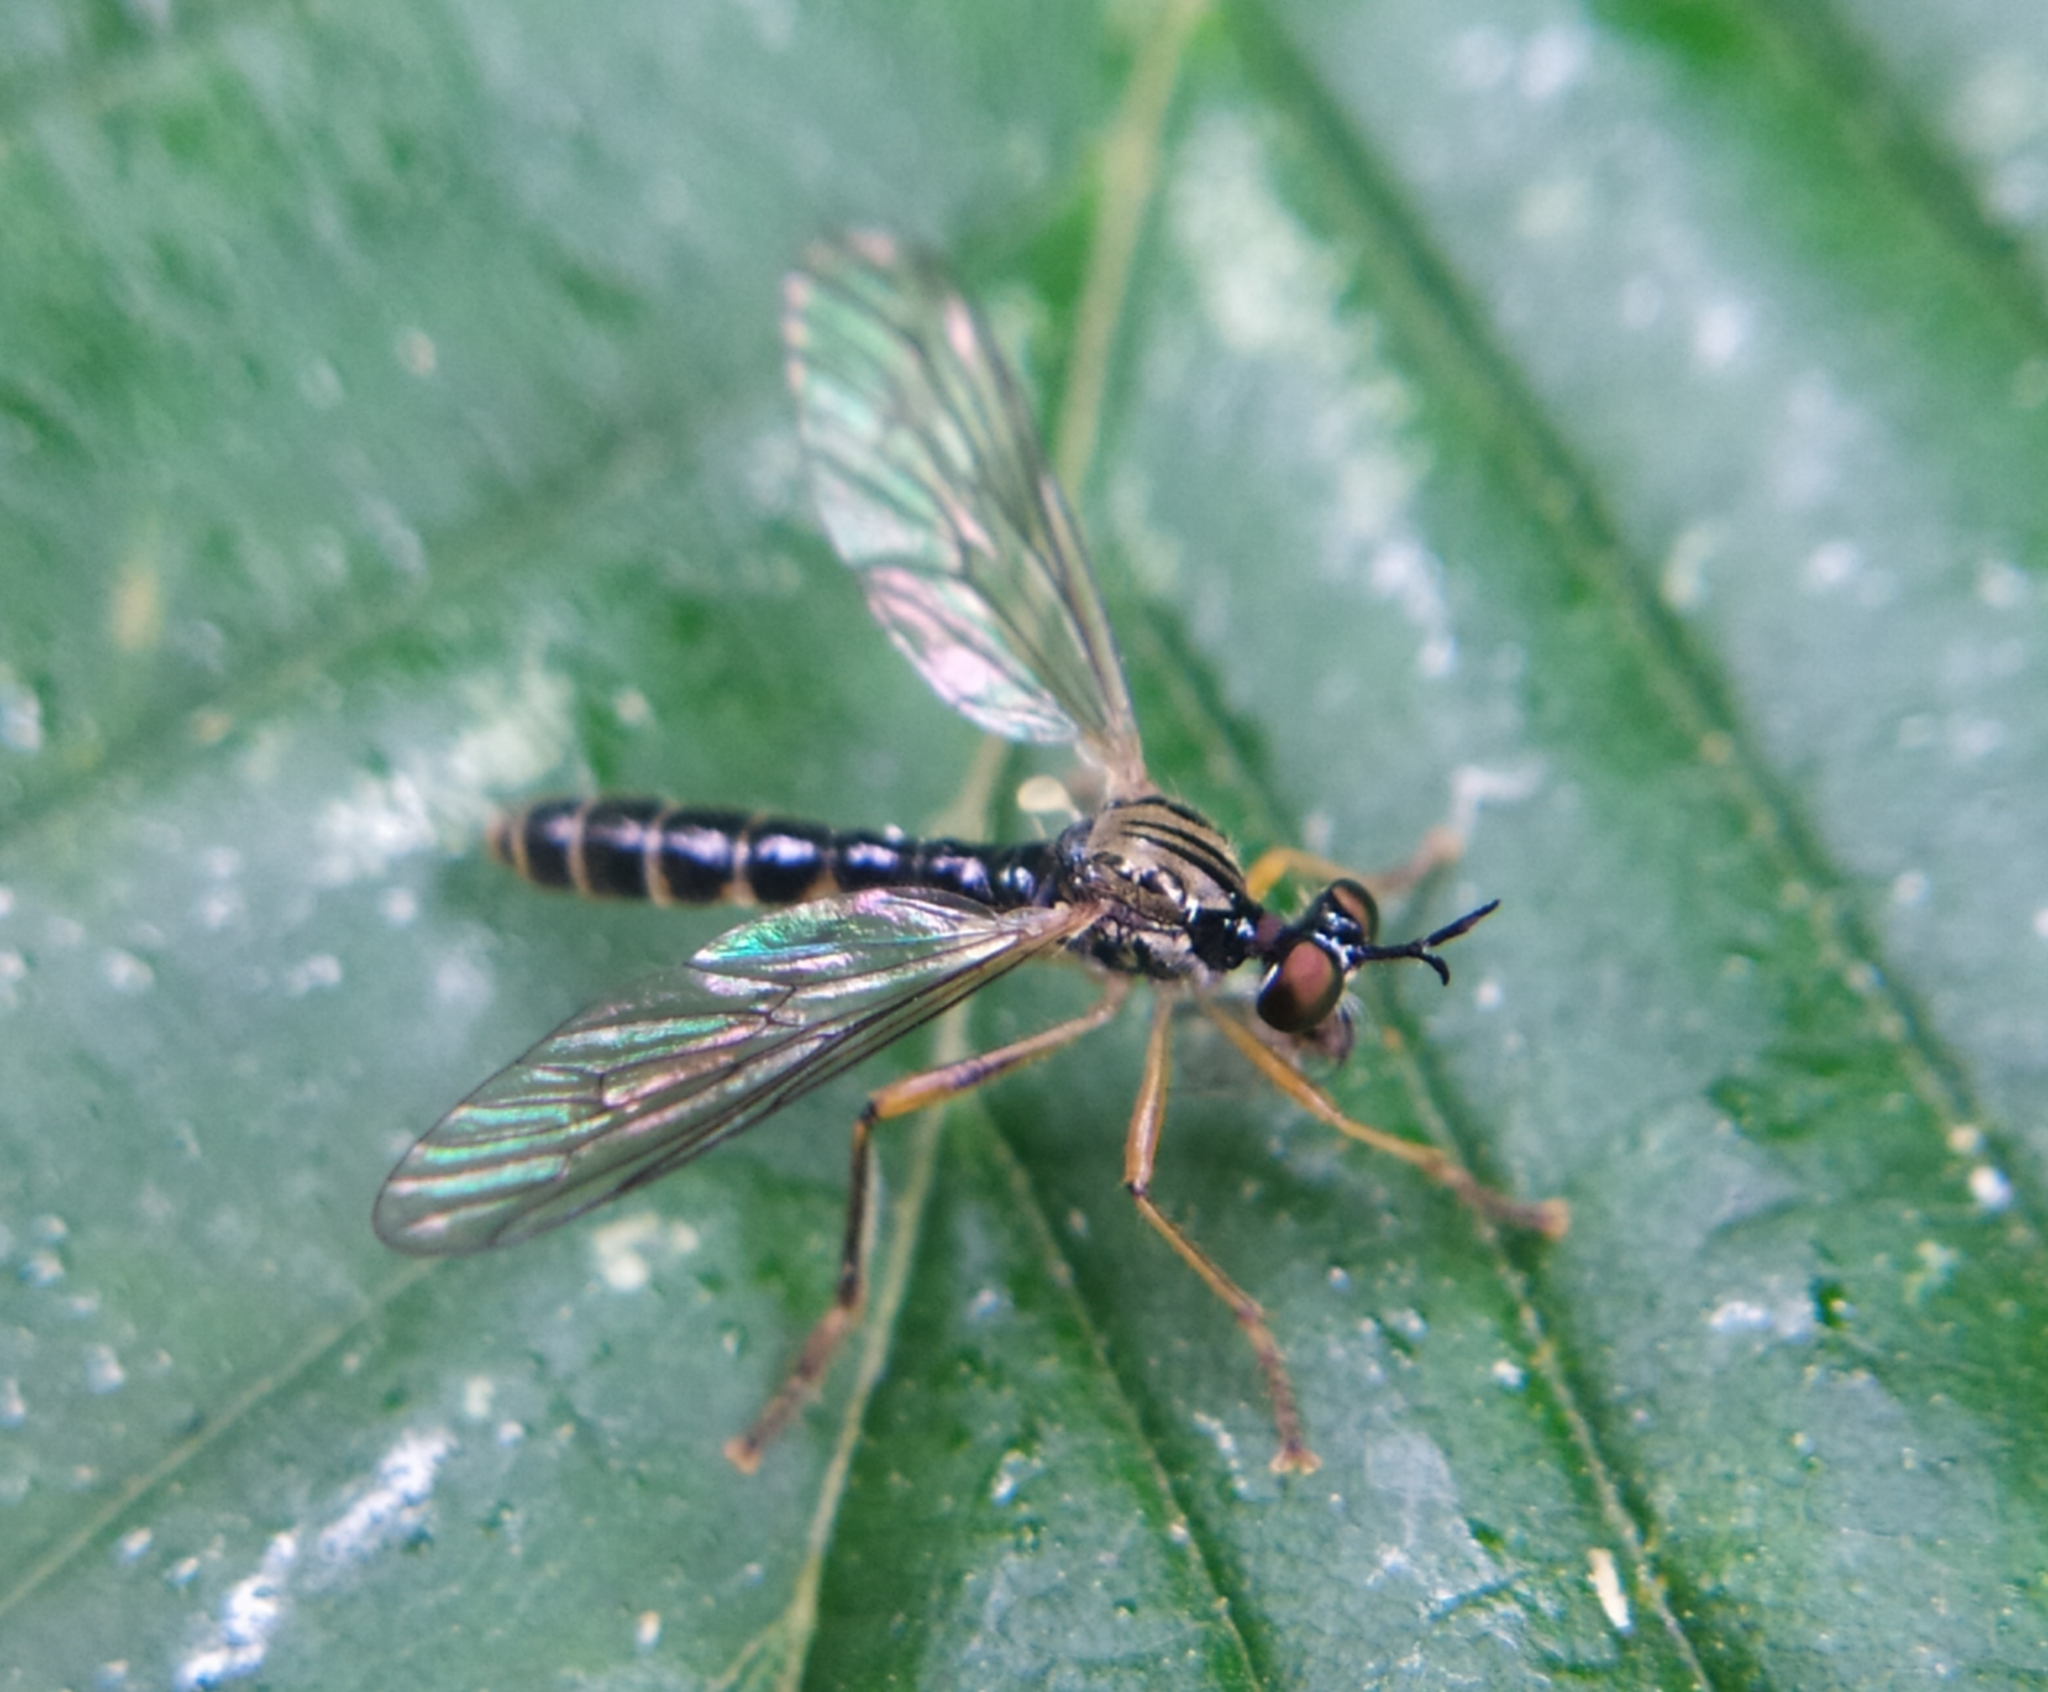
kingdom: Animalia
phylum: Arthropoda
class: Insecta
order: Diptera
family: Asilidae
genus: Dioctria
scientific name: Dioctria linearis
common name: Small yellow-legged robberfly
